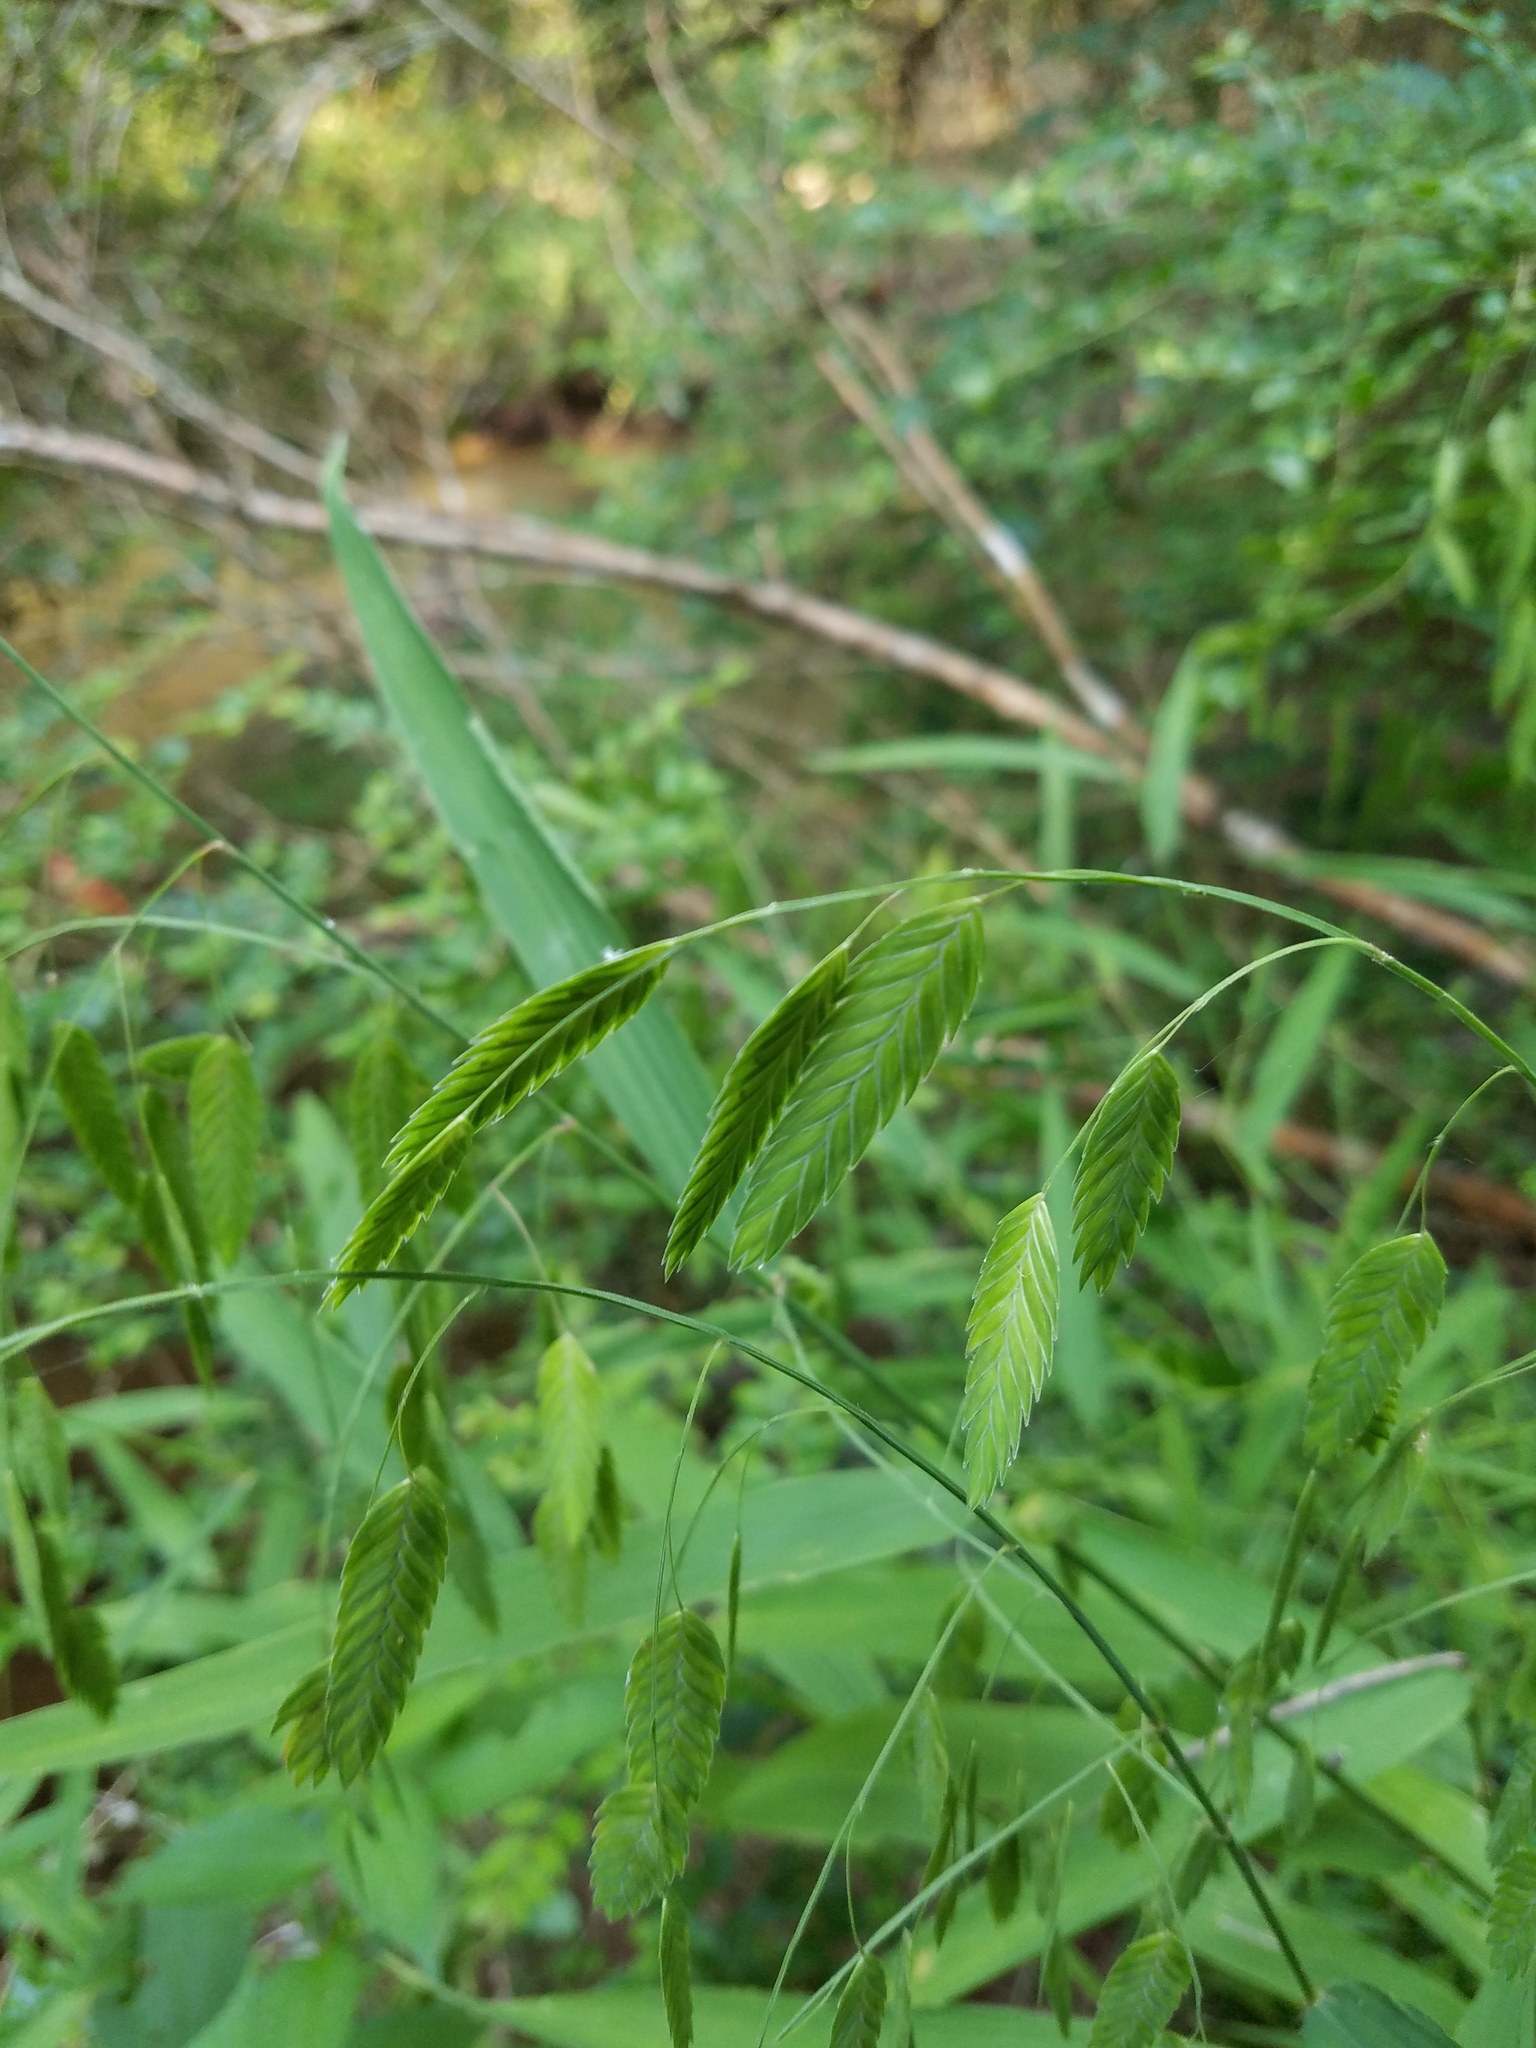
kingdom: Plantae
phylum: Tracheophyta
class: Liliopsida
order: Poales
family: Poaceae
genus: Chasmanthium
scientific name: Chasmanthium latifolium
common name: Broad-leaved chasmanthium
